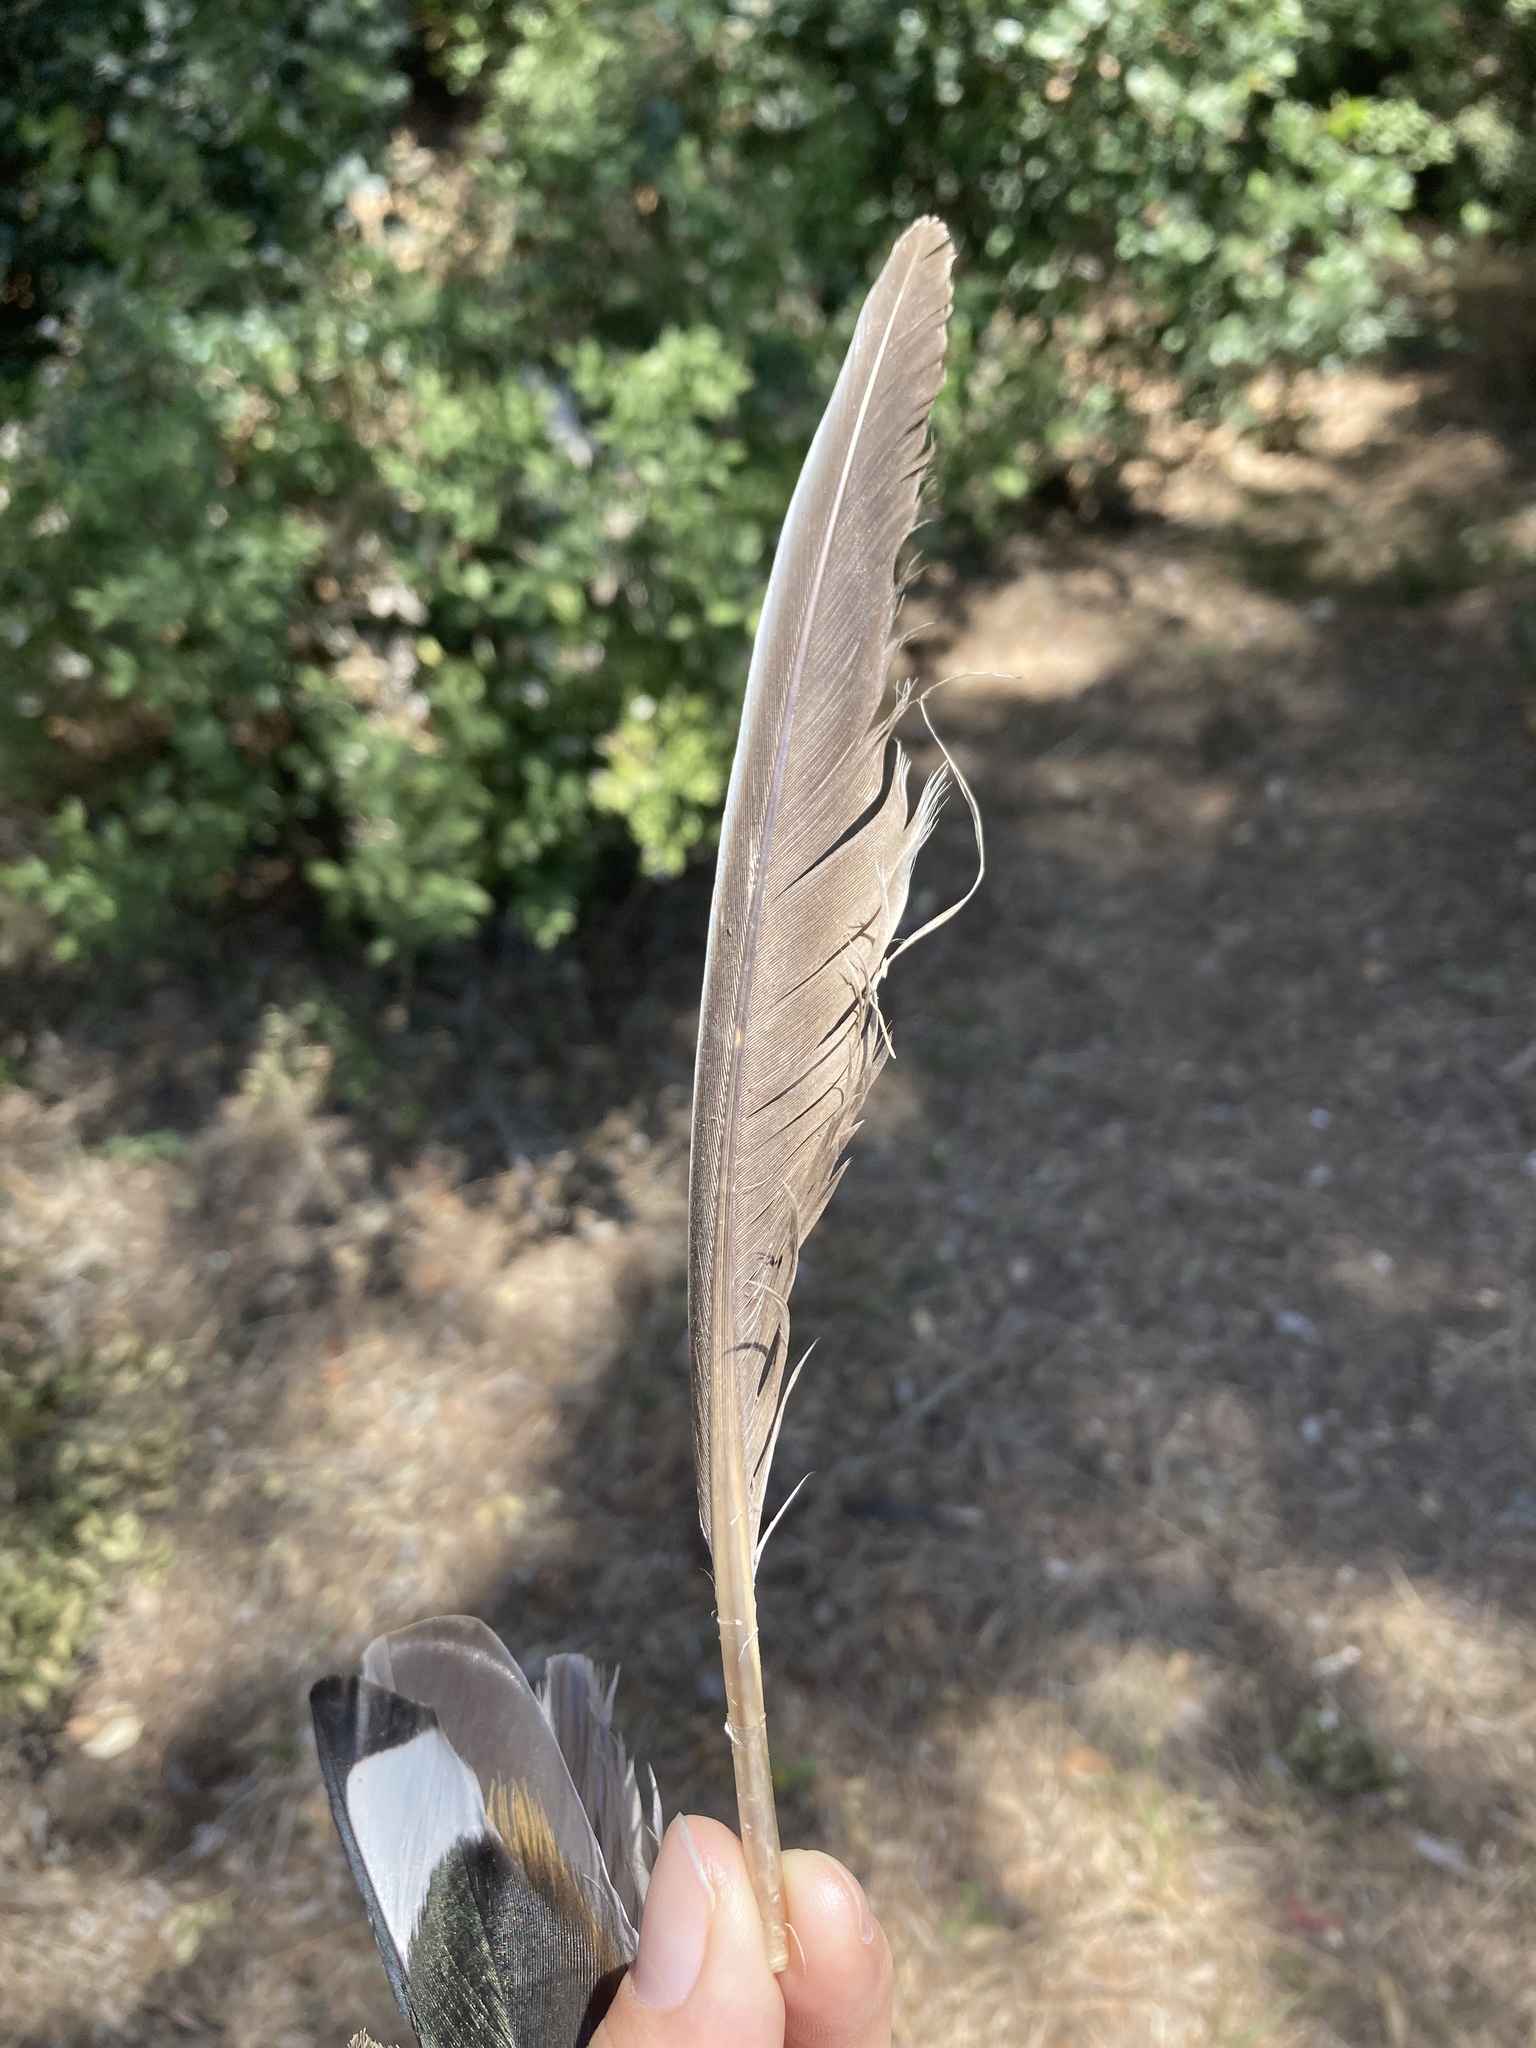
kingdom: Animalia
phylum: Chordata
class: Aves
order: Columbiformes
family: Columbidae
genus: Columba
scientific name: Columba palumbus
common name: Common wood pigeon
